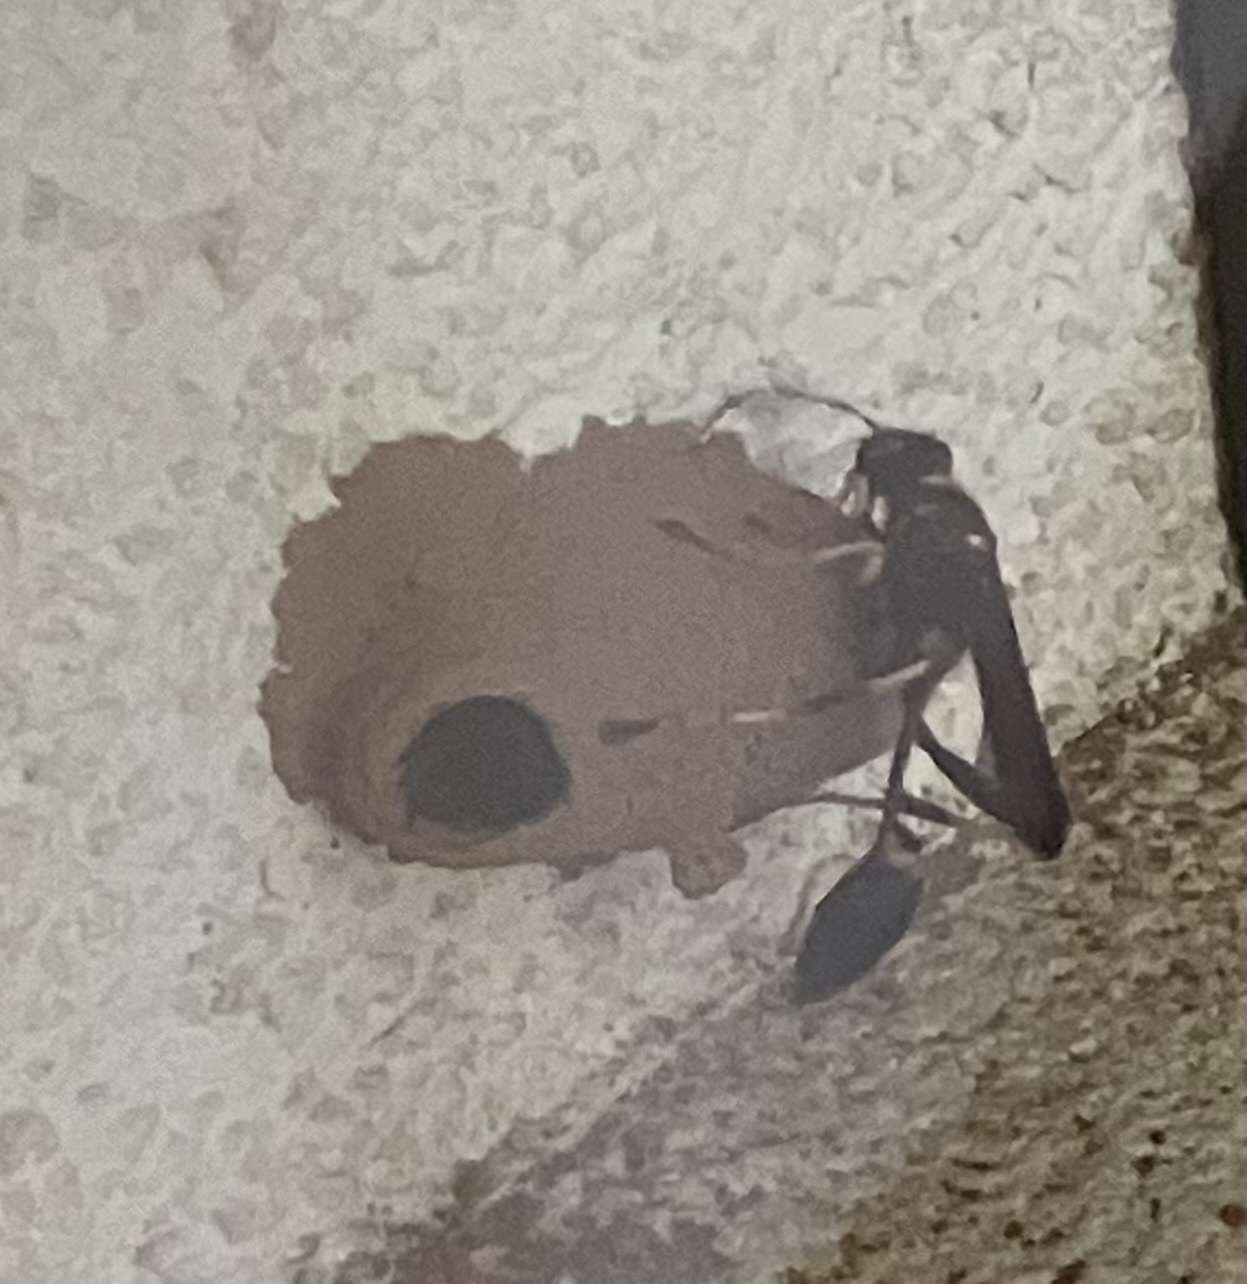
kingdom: Animalia
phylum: Arthropoda
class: Insecta
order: Hymenoptera
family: Sphecidae
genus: Sceliphron
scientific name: Sceliphron caementarium
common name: Mud dauber
